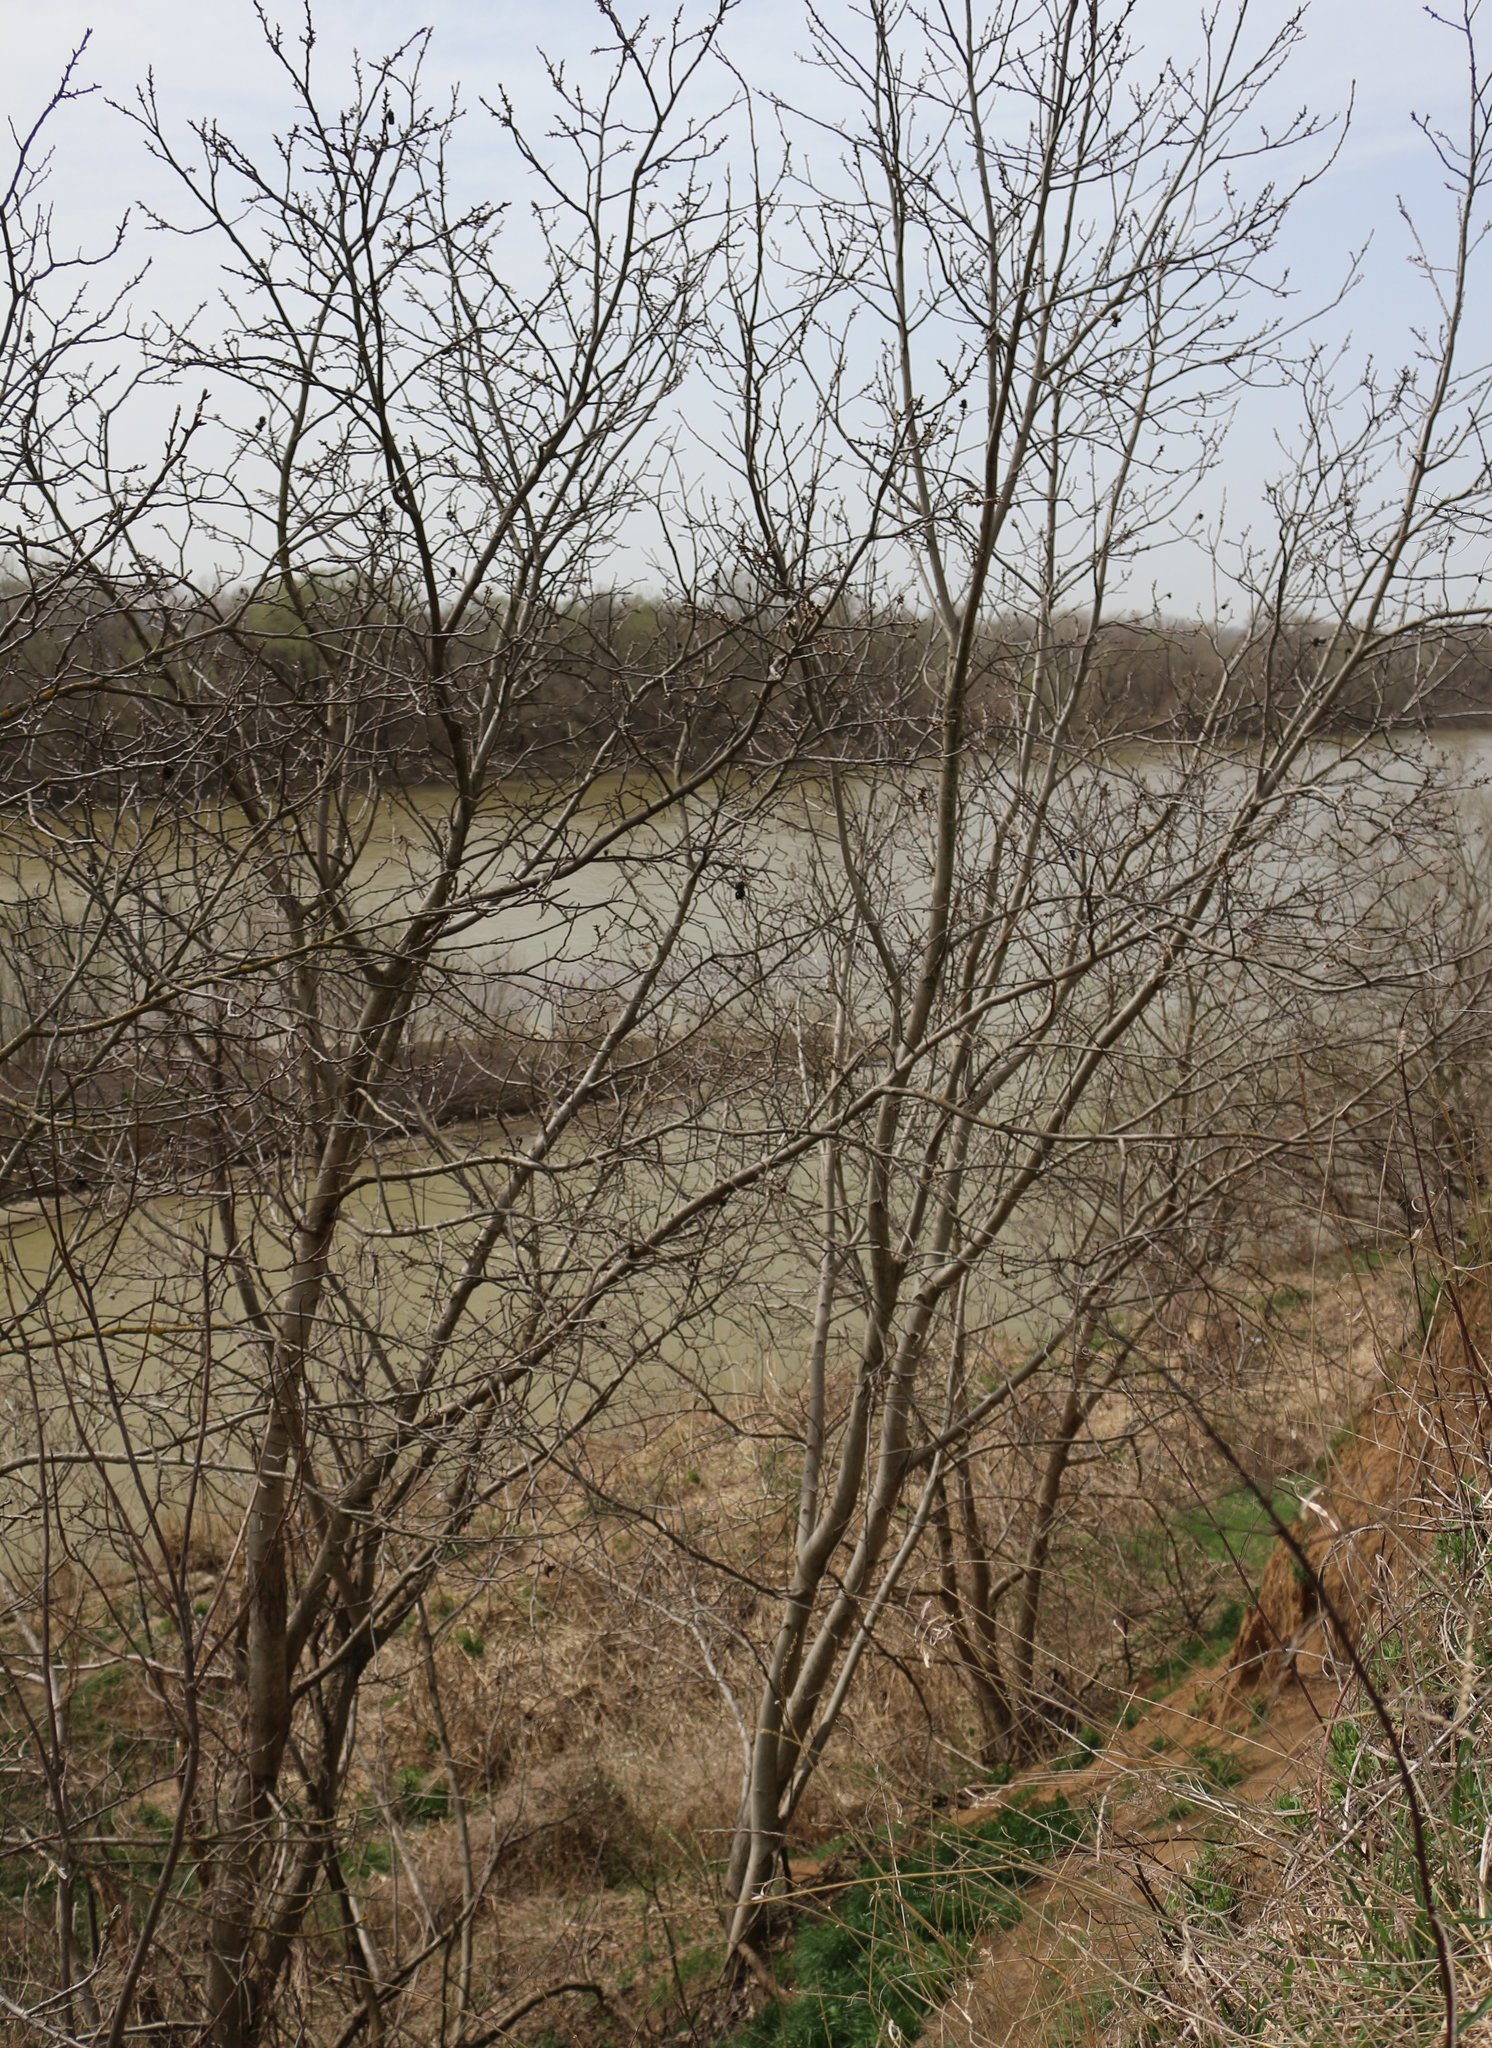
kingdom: Plantae
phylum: Tracheophyta
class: Magnoliopsida
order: Fagales
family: Juglandaceae
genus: Juglans
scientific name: Juglans regia
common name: Walnut
